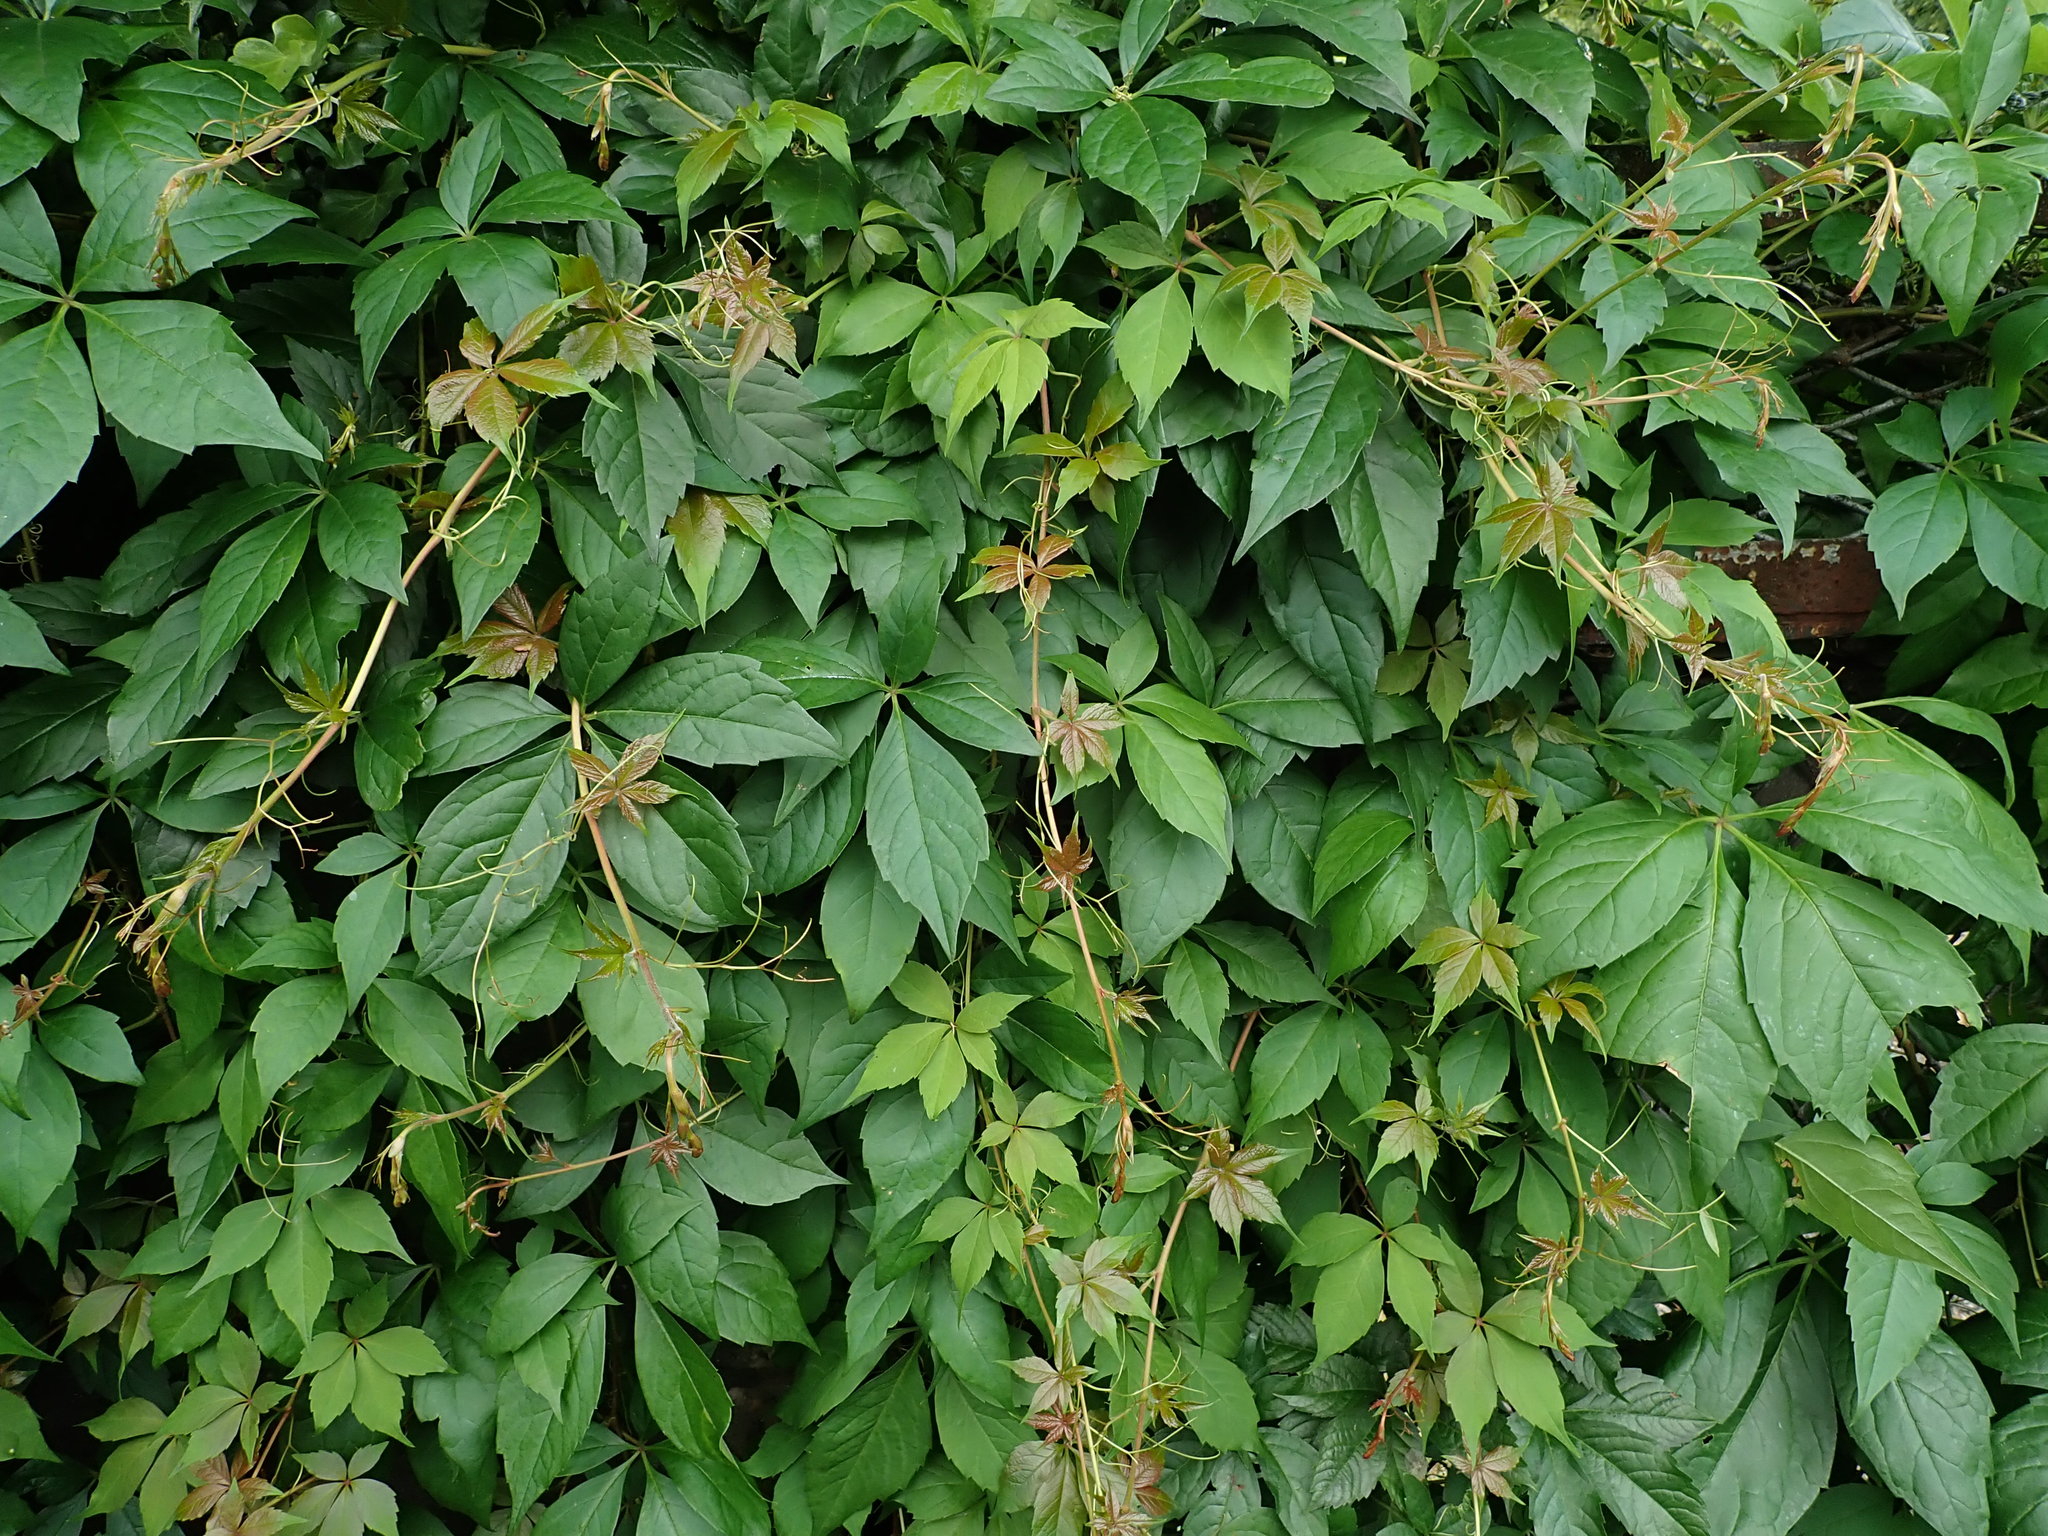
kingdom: Plantae
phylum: Tracheophyta
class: Magnoliopsida
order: Vitales
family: Vitaceae
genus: Parthenocissus
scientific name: Parthenocissus quinquefolia
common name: Virginia-creeper
